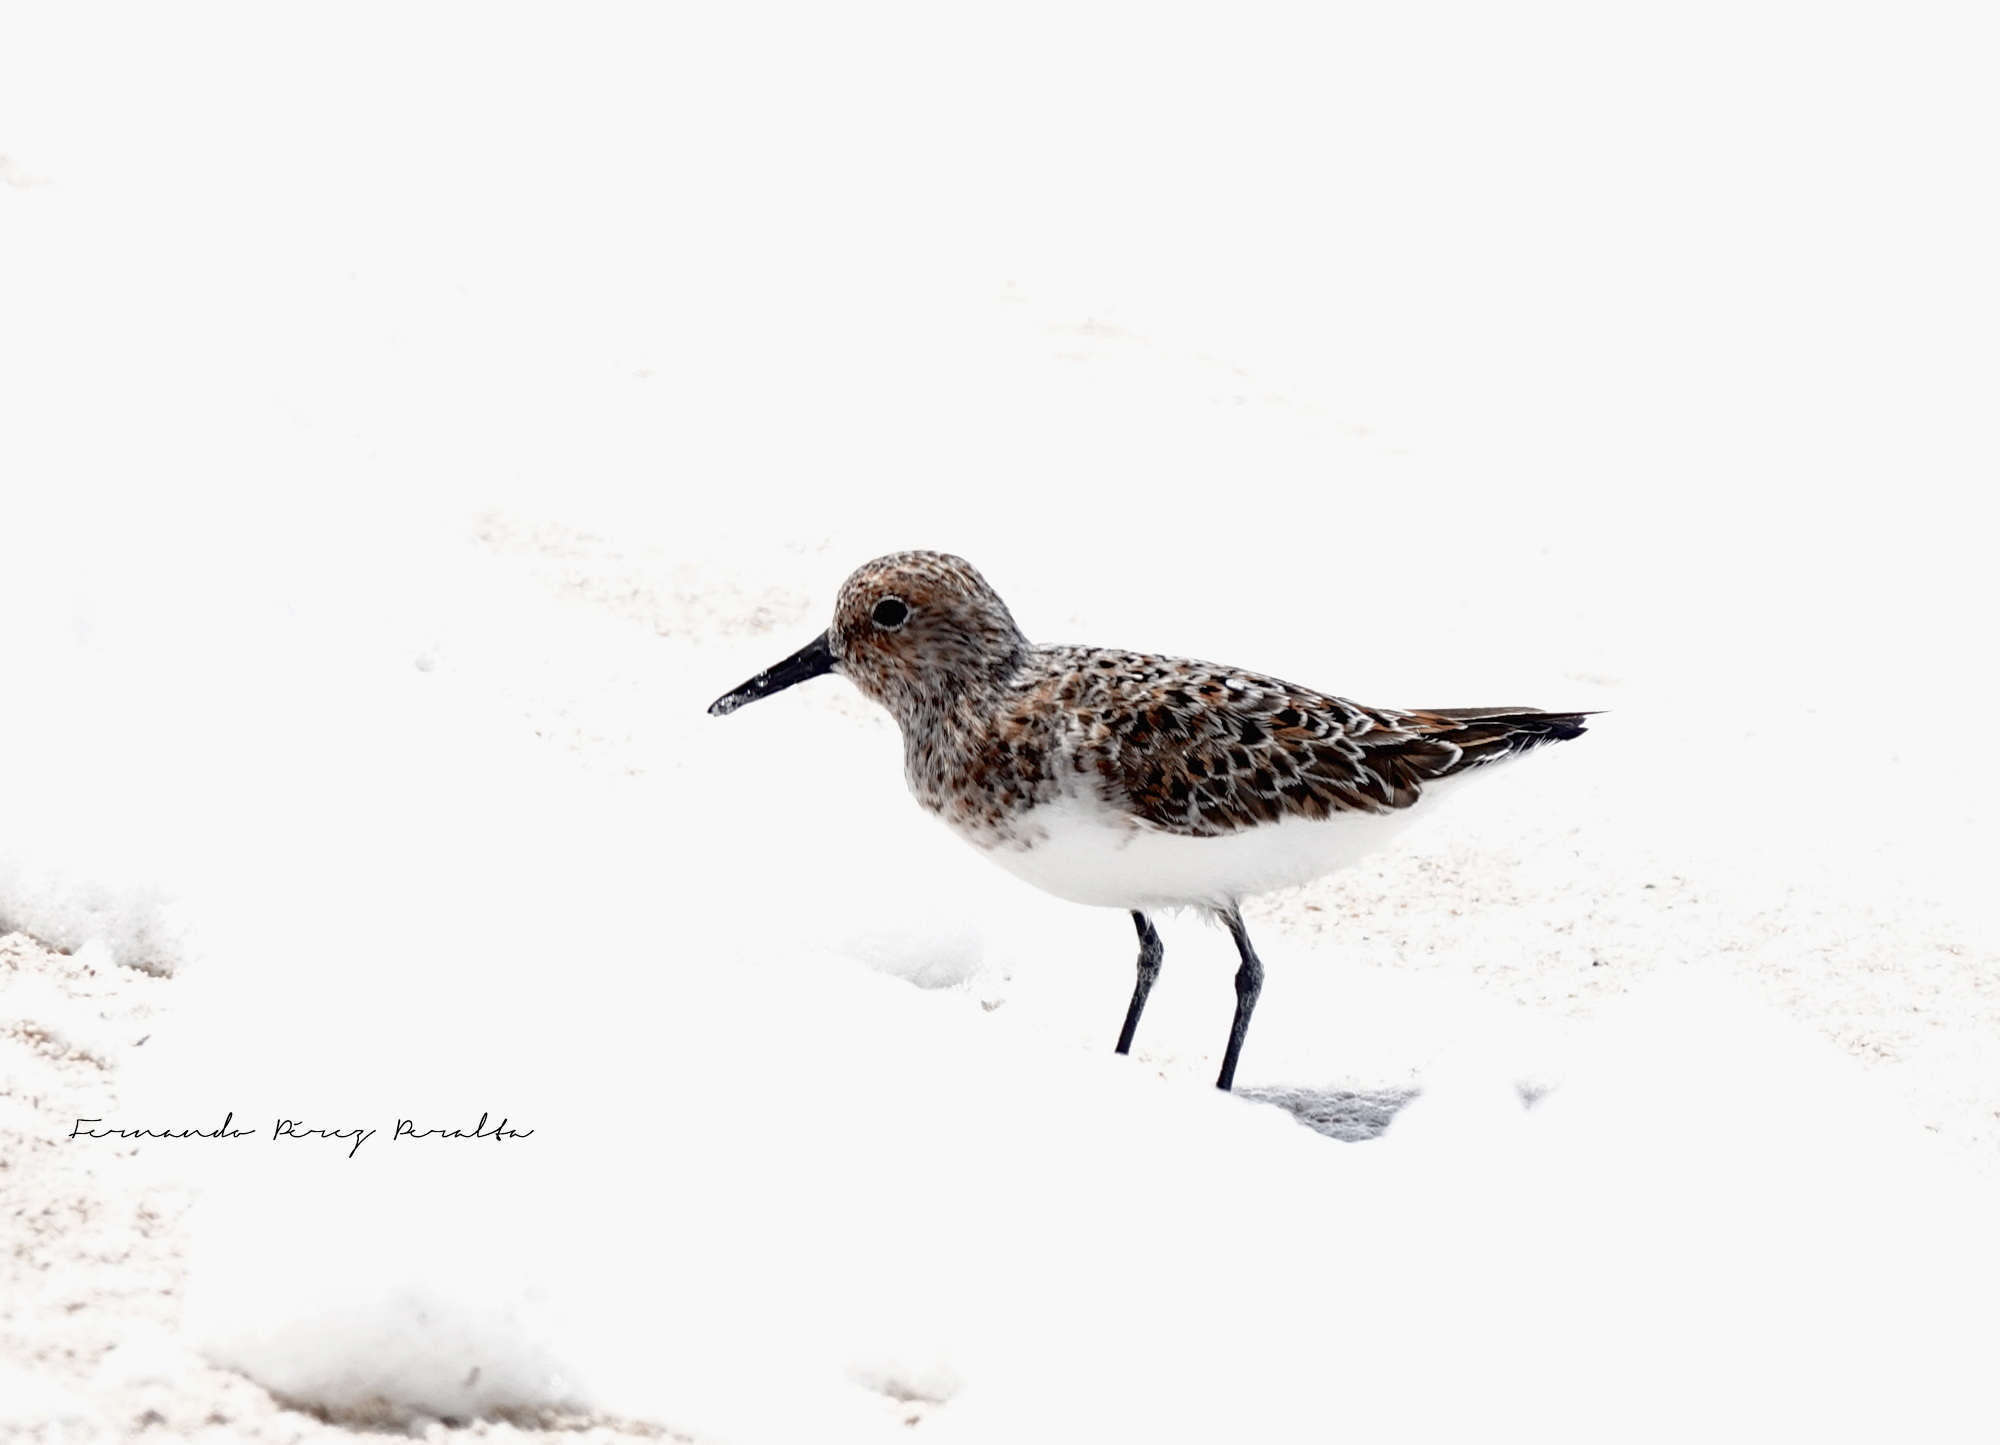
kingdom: Animalia
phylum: Chordata
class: Aves
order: Charadriiformes
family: Scolopacidae
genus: Calidris
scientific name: Calidris alba
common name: Sanderling
